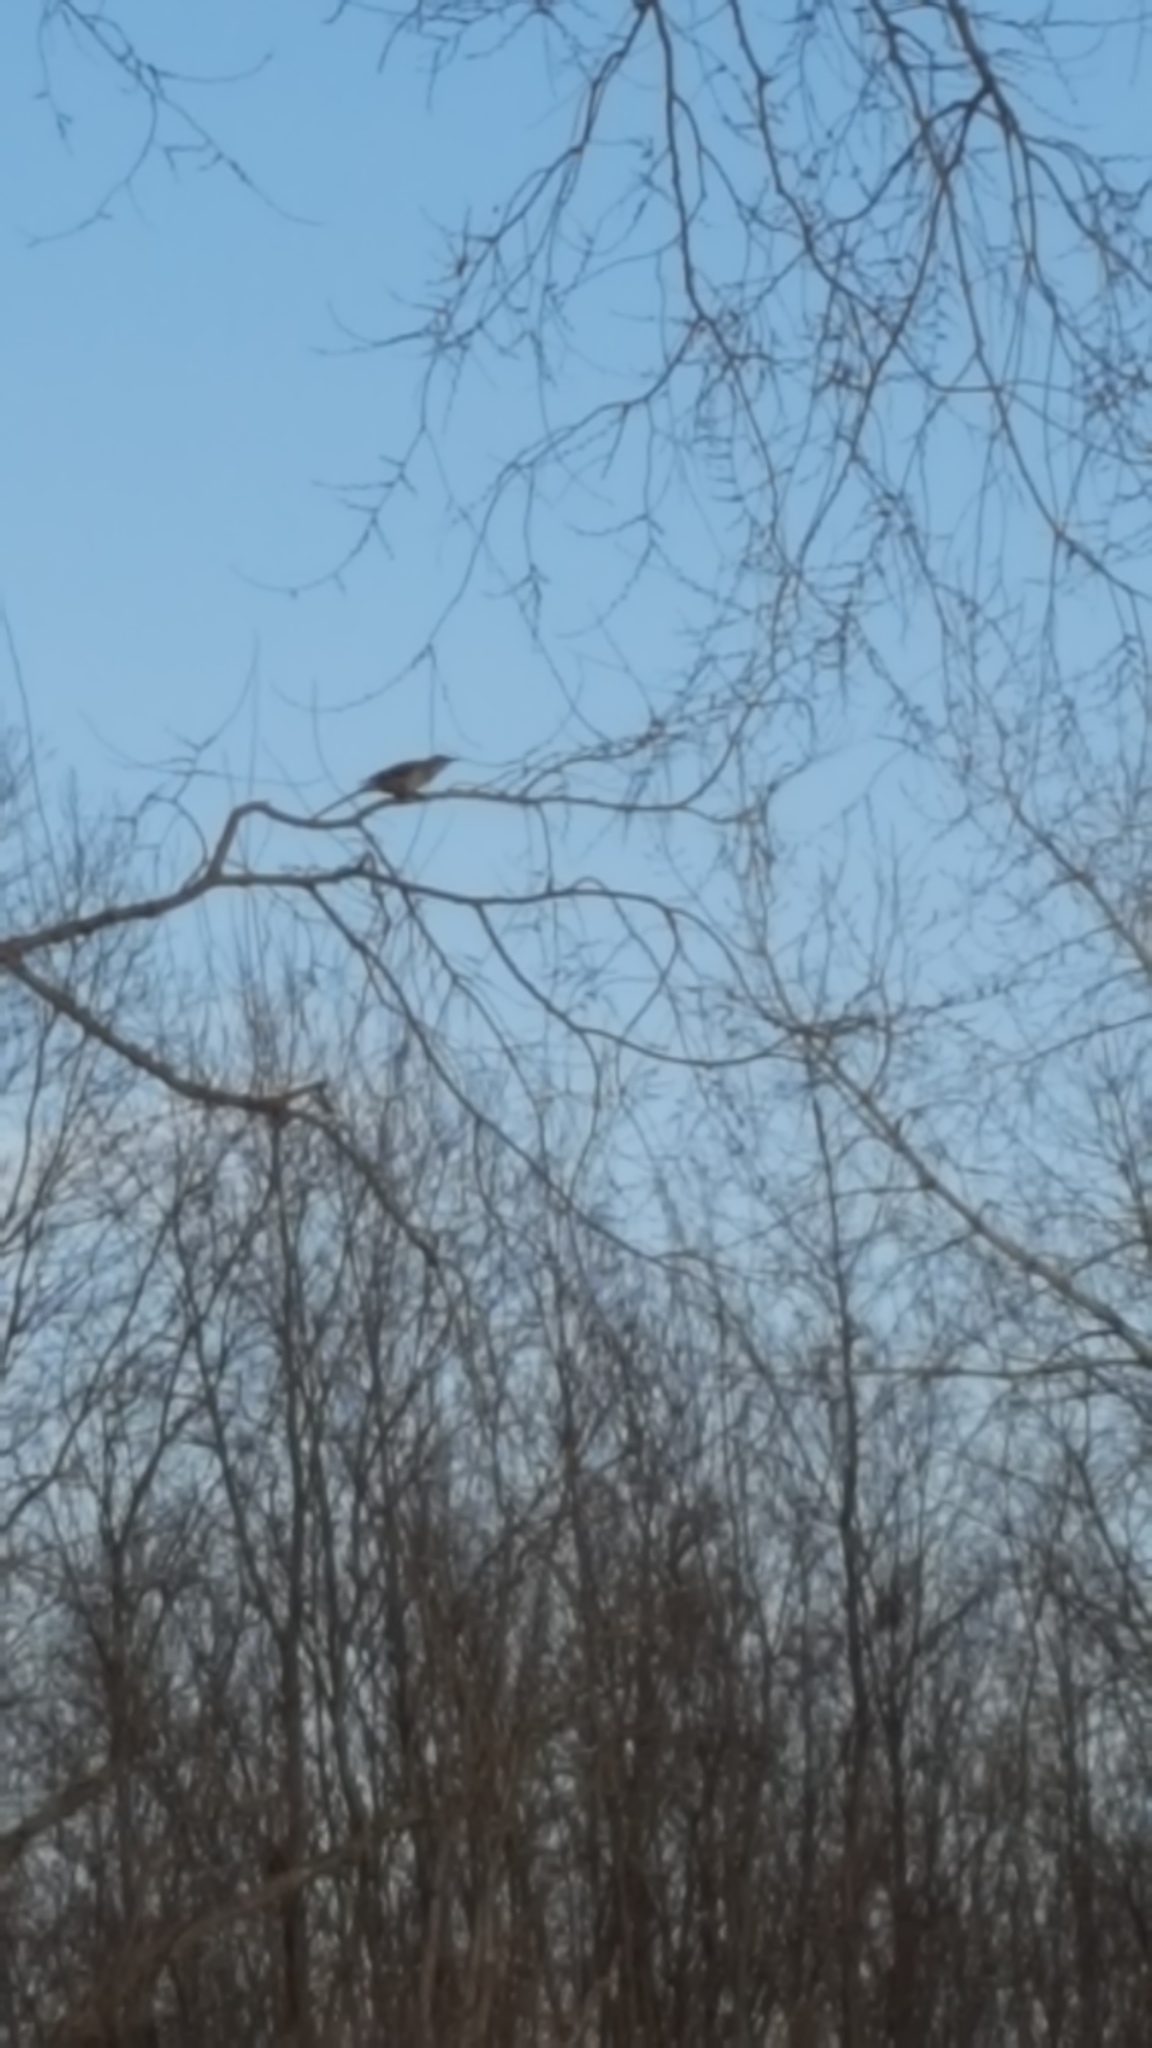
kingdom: Animalia
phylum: Chordata
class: Aves
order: Passeriformes
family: Mimidae
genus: Mimus
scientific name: Mimus polyglottos
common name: Northern mockingbird
